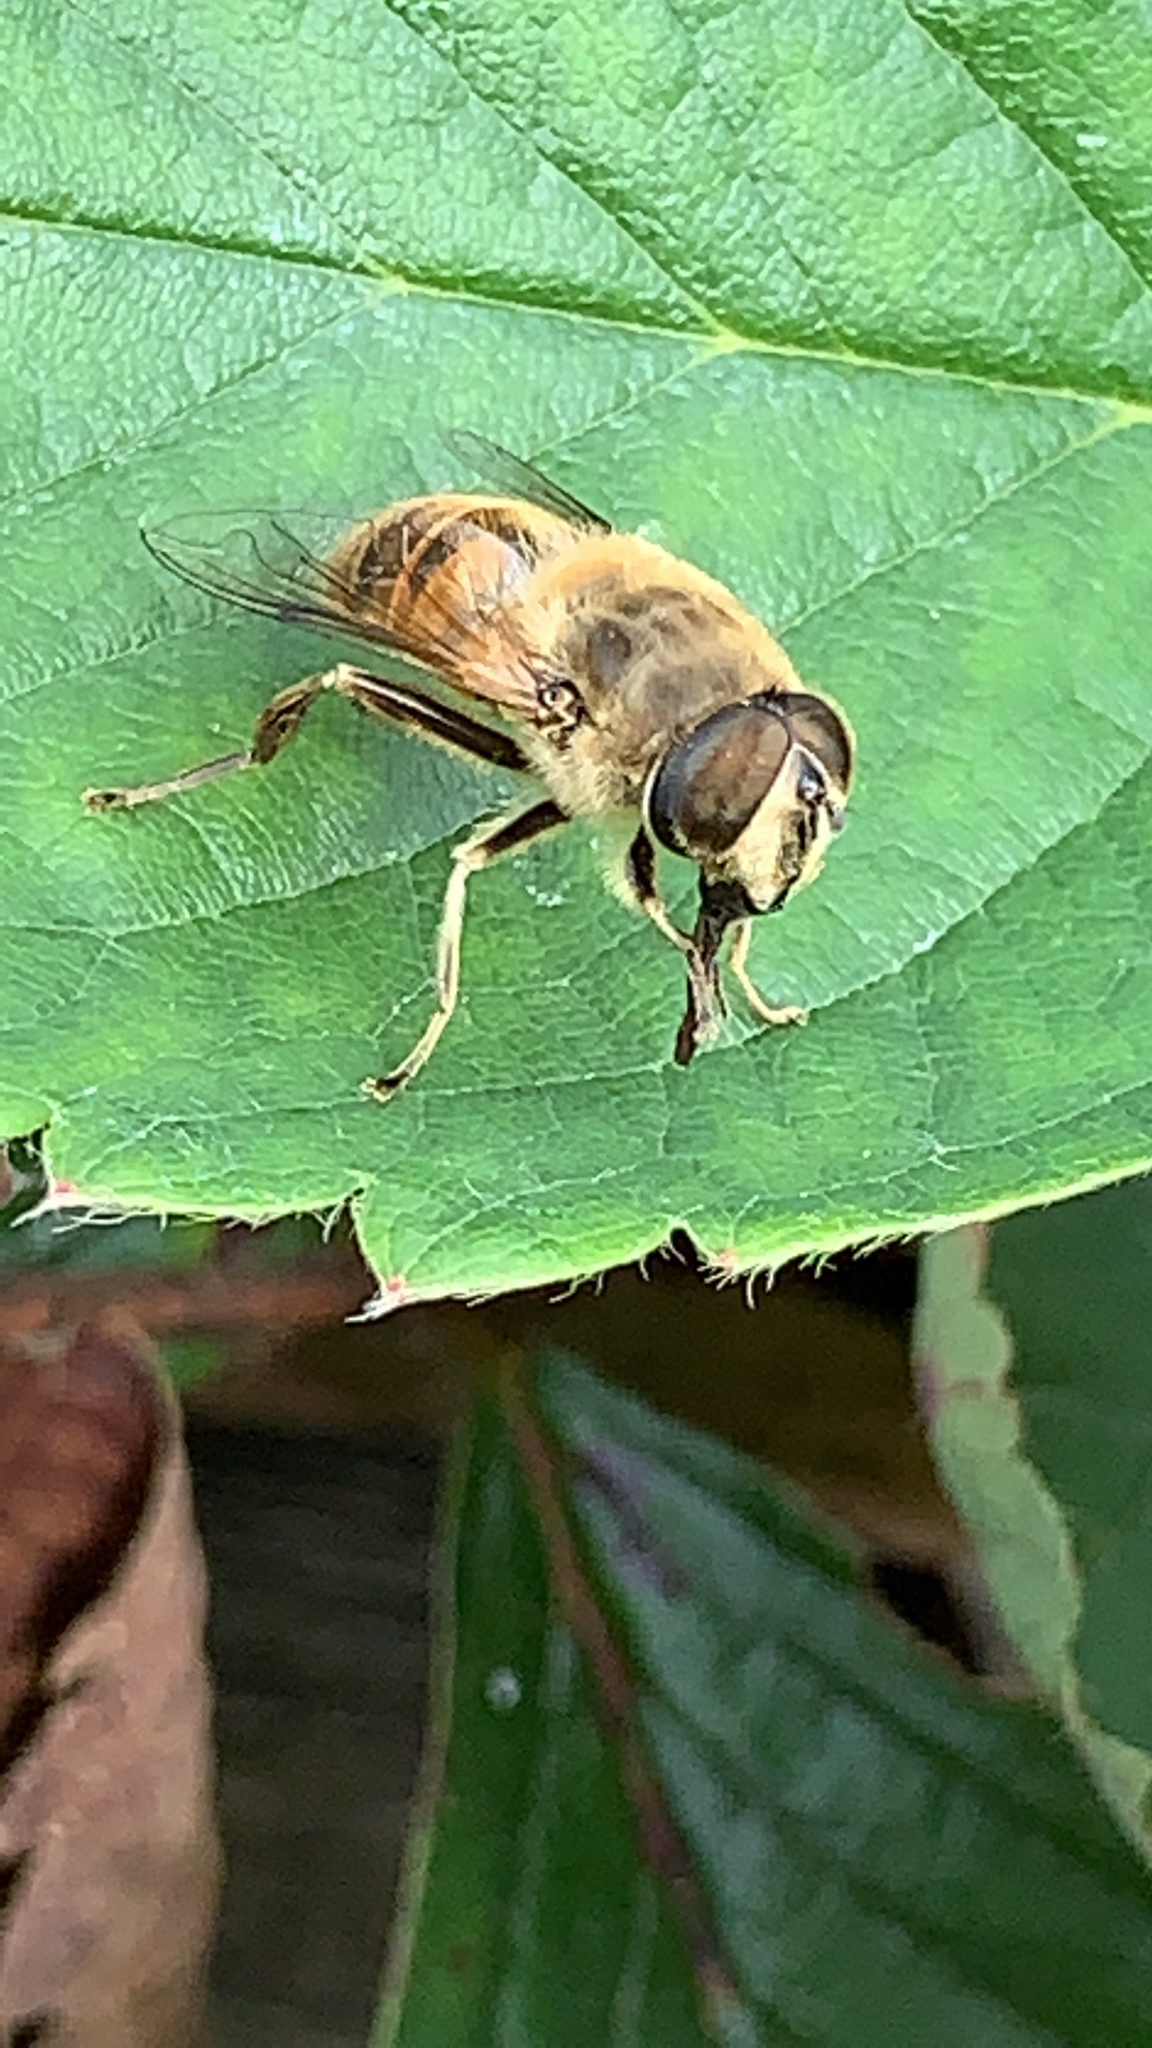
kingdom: Animalia
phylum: Arthropoda
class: Insecta
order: Diptera
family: Syrphidae
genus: Eristalis
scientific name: Eristalis tenax
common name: Drone fly
